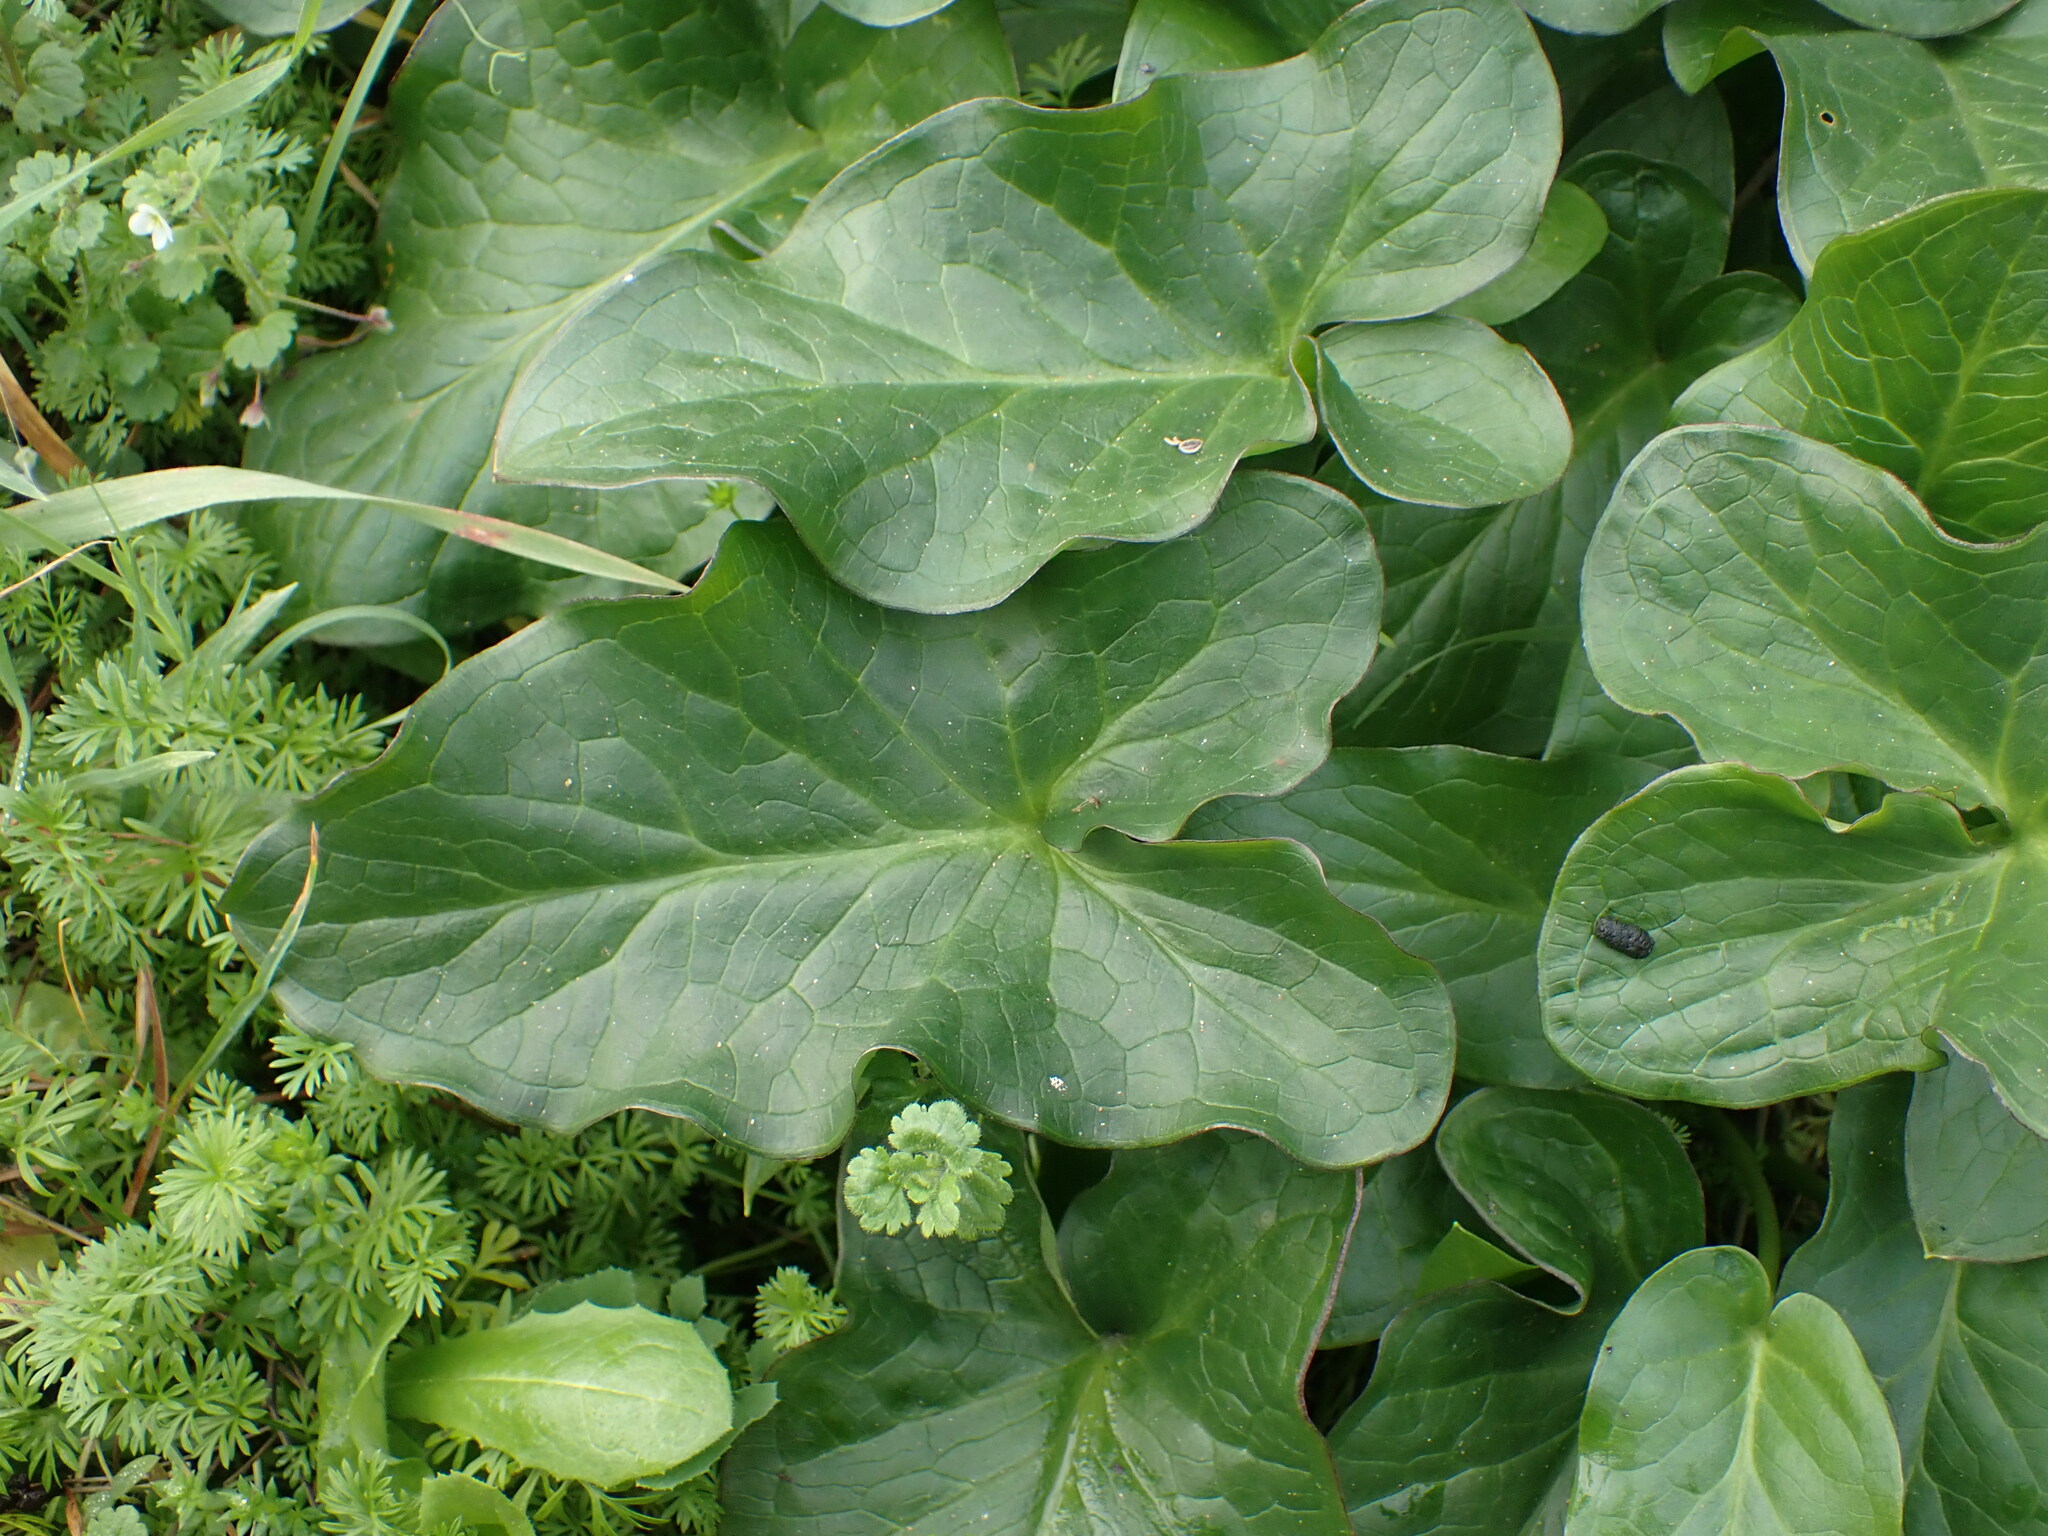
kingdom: Plantae
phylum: Tracheophyta
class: Liliopsida
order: Alismatales
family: Araceae
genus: Arum
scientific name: Arum italicum
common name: Italian lords-and-ladies
